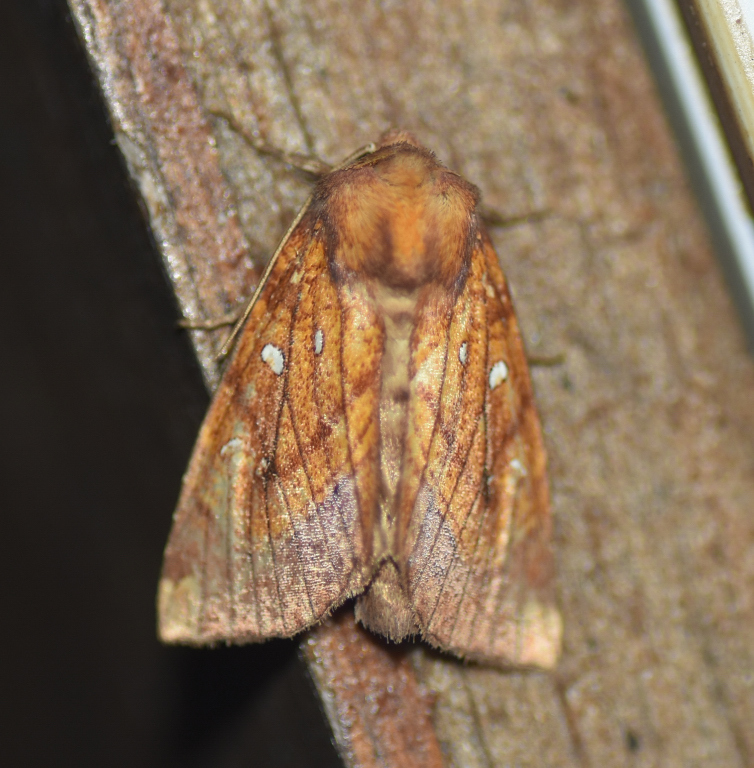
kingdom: Animalia
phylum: Arthropoda
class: Insecta
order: Lepidoptera
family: Noctuidae
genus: Papaipema
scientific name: Papaipema inquaesita
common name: Sensitive fern borer moth
